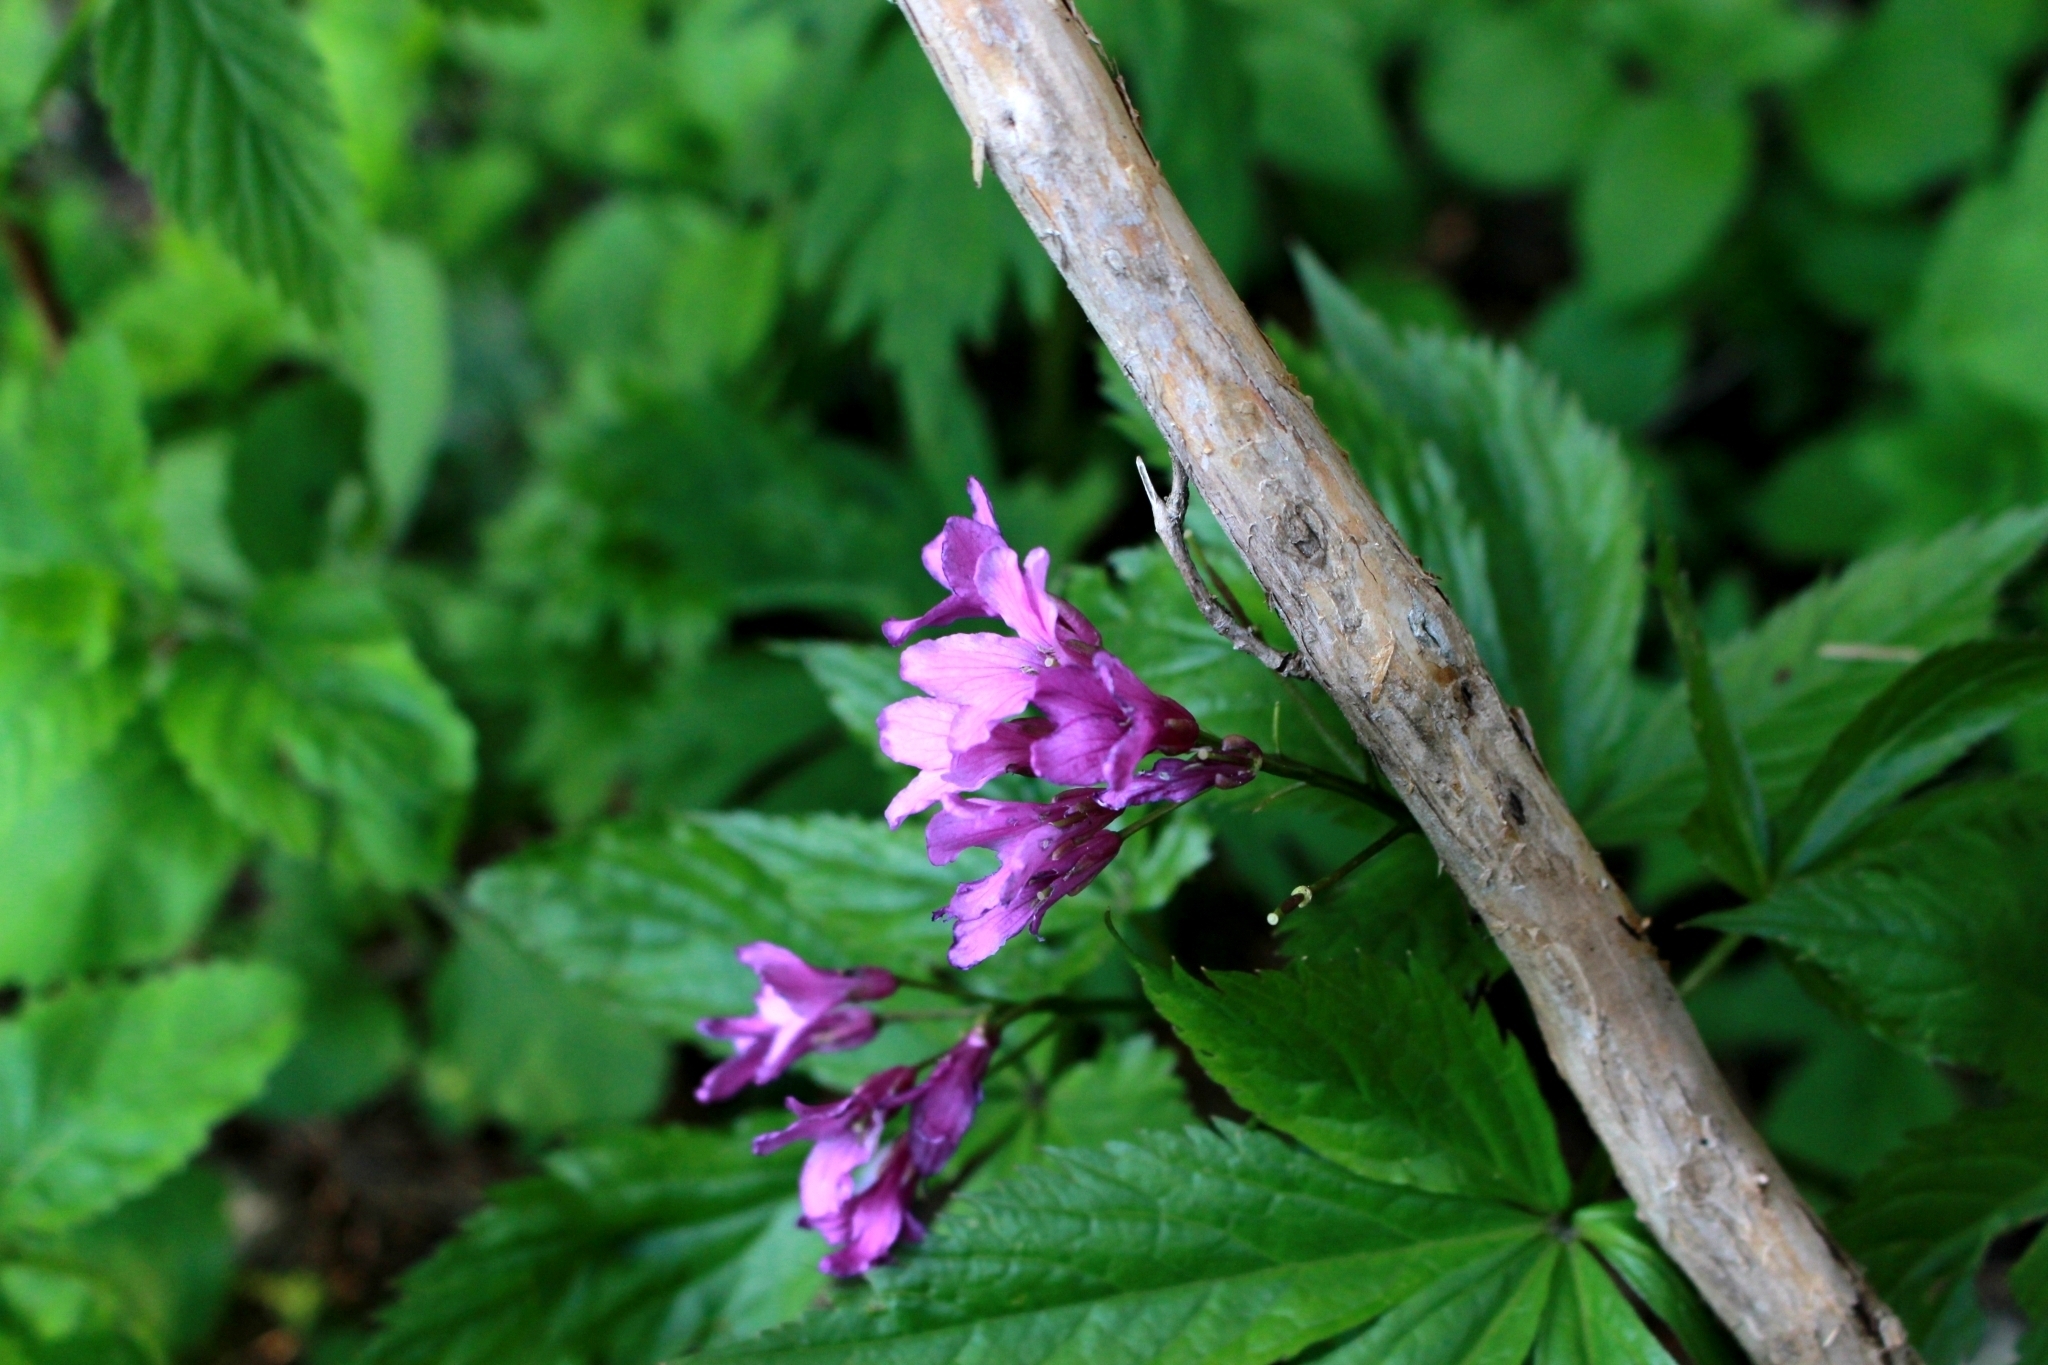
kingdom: Plantae
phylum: Tracheophyta
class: Magnoliopsida
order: Brassicales
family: Brassicaceae
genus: Cardamine
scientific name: Cardamine pentaphyllos
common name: Five-leaflet bitter-cress
